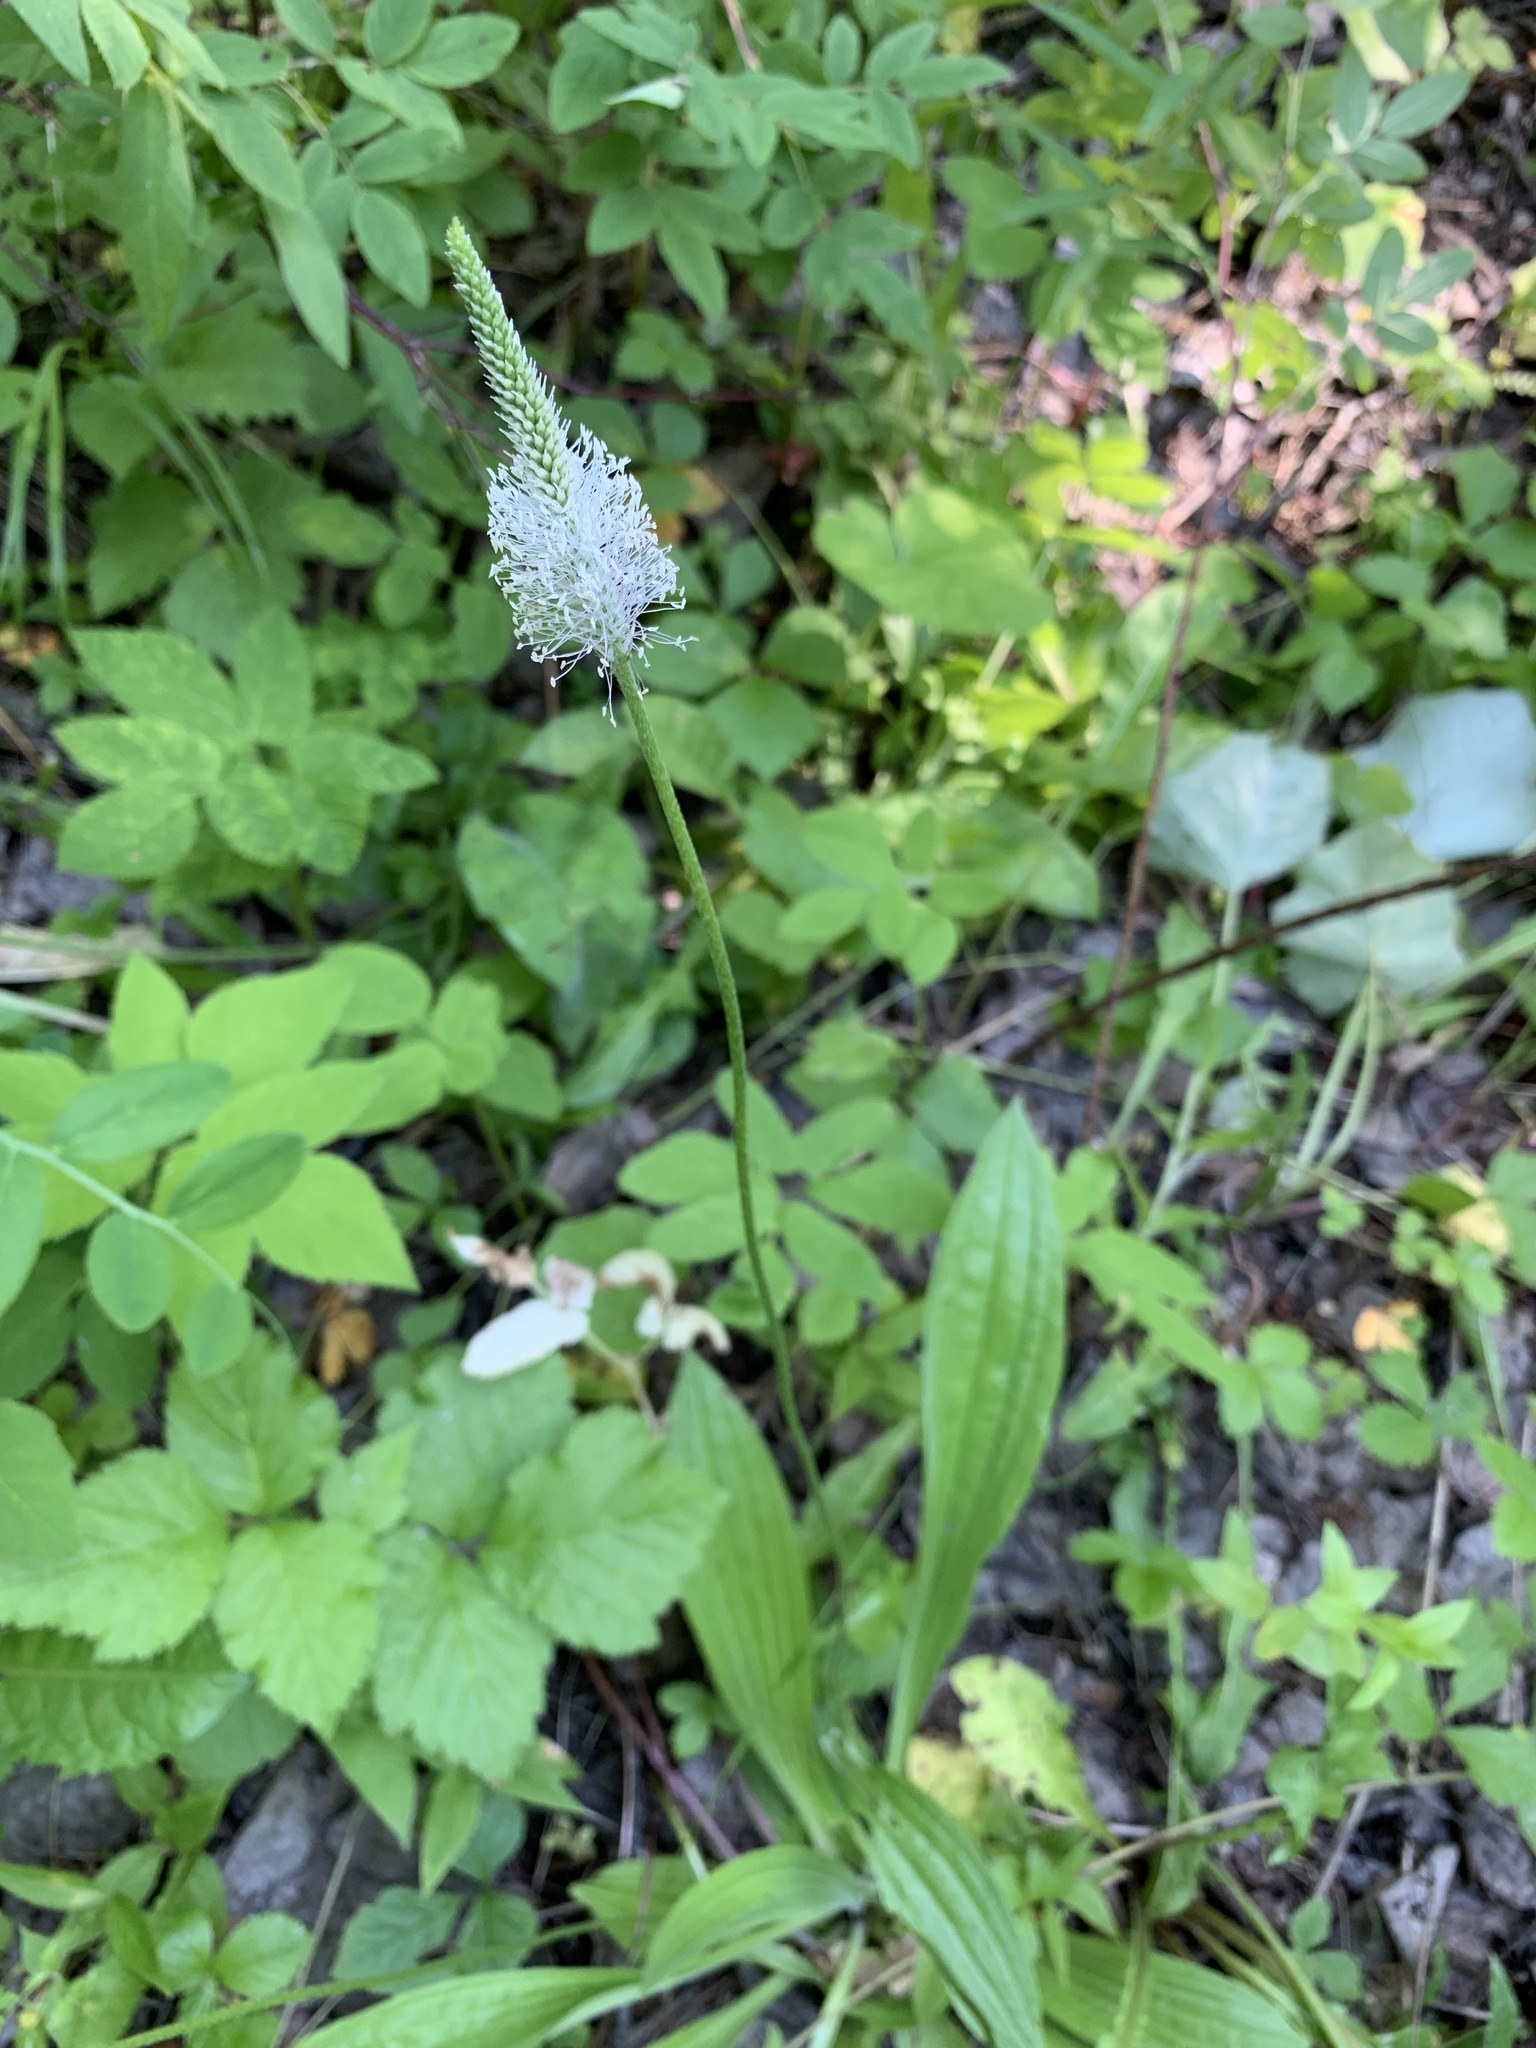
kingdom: Plantae
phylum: Tracheophyta
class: Magnoliopsida
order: Lamiales
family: Plantaginaceae
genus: Plantago
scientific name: Plantago urvillei
